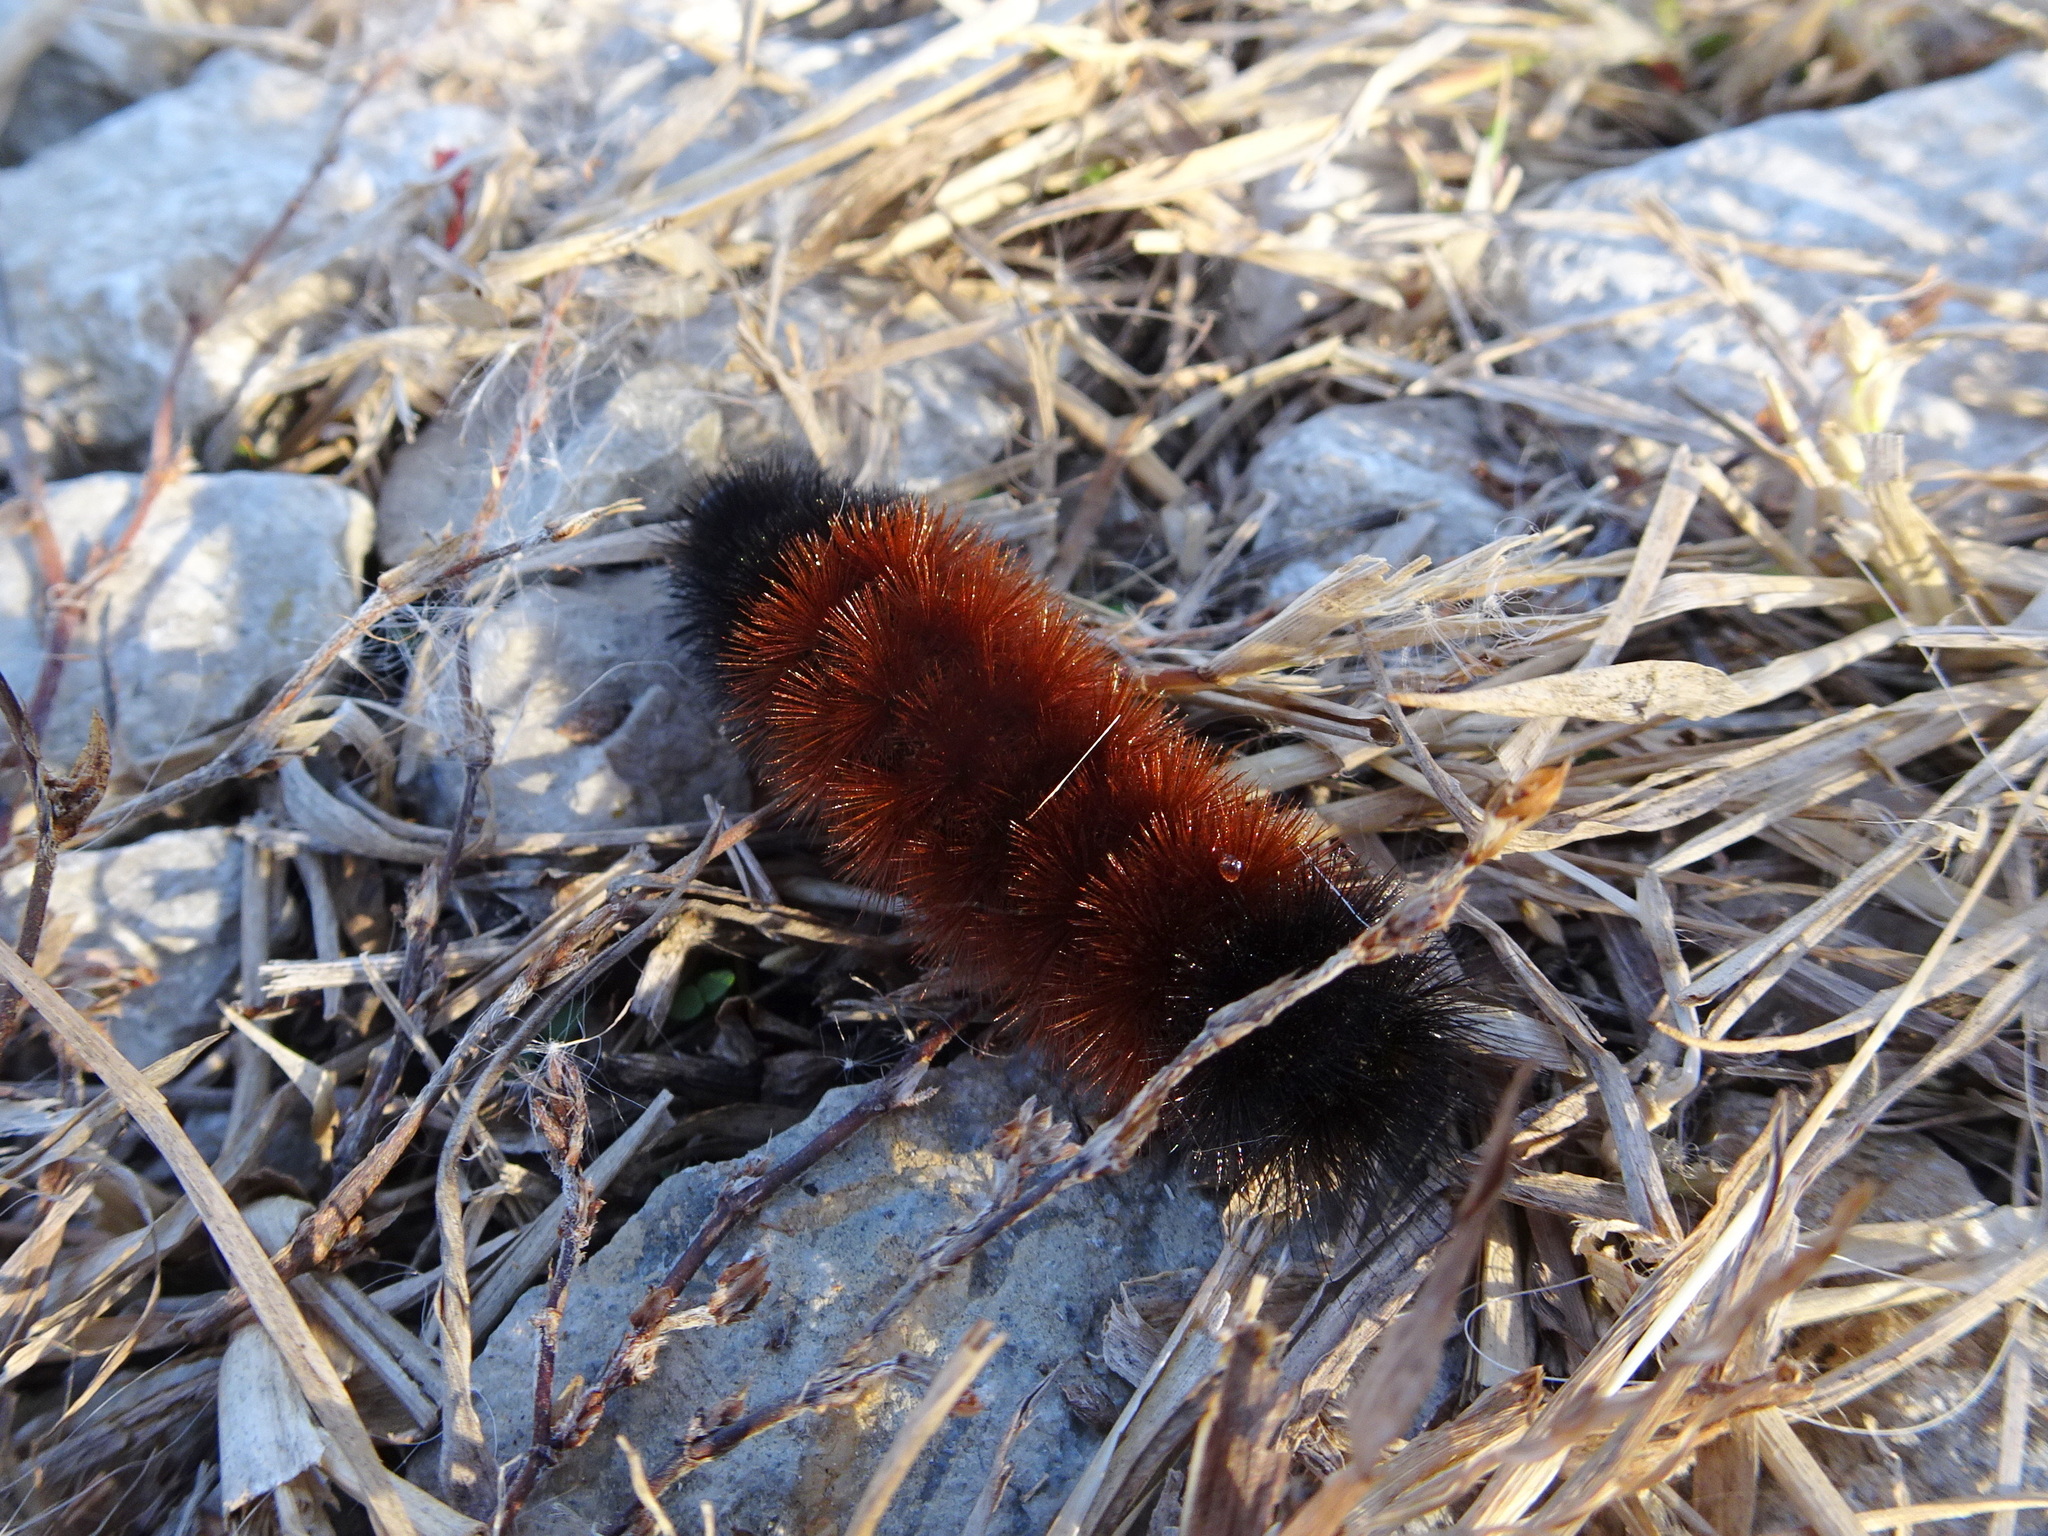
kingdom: Animalia
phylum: Arthropoda
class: Insecta
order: Lepidoptera
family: Erebidae
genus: Pyrrharctia
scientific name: Pyrrharctia isabella
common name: Isabella tiger moth
